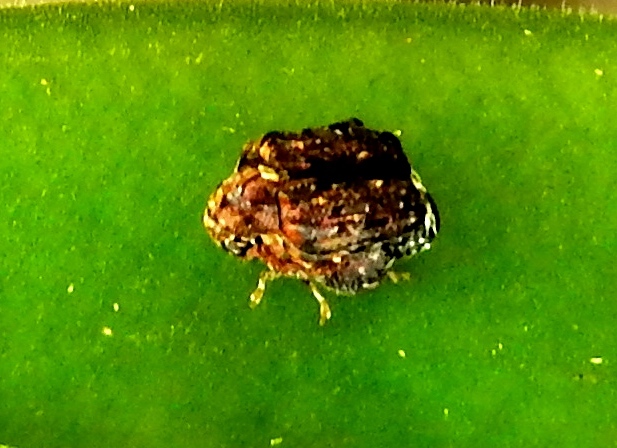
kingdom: Animalia
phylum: Arthropoda
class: Insecta
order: Coleoptera
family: Chrysomelidae
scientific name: Chrysomelidae
